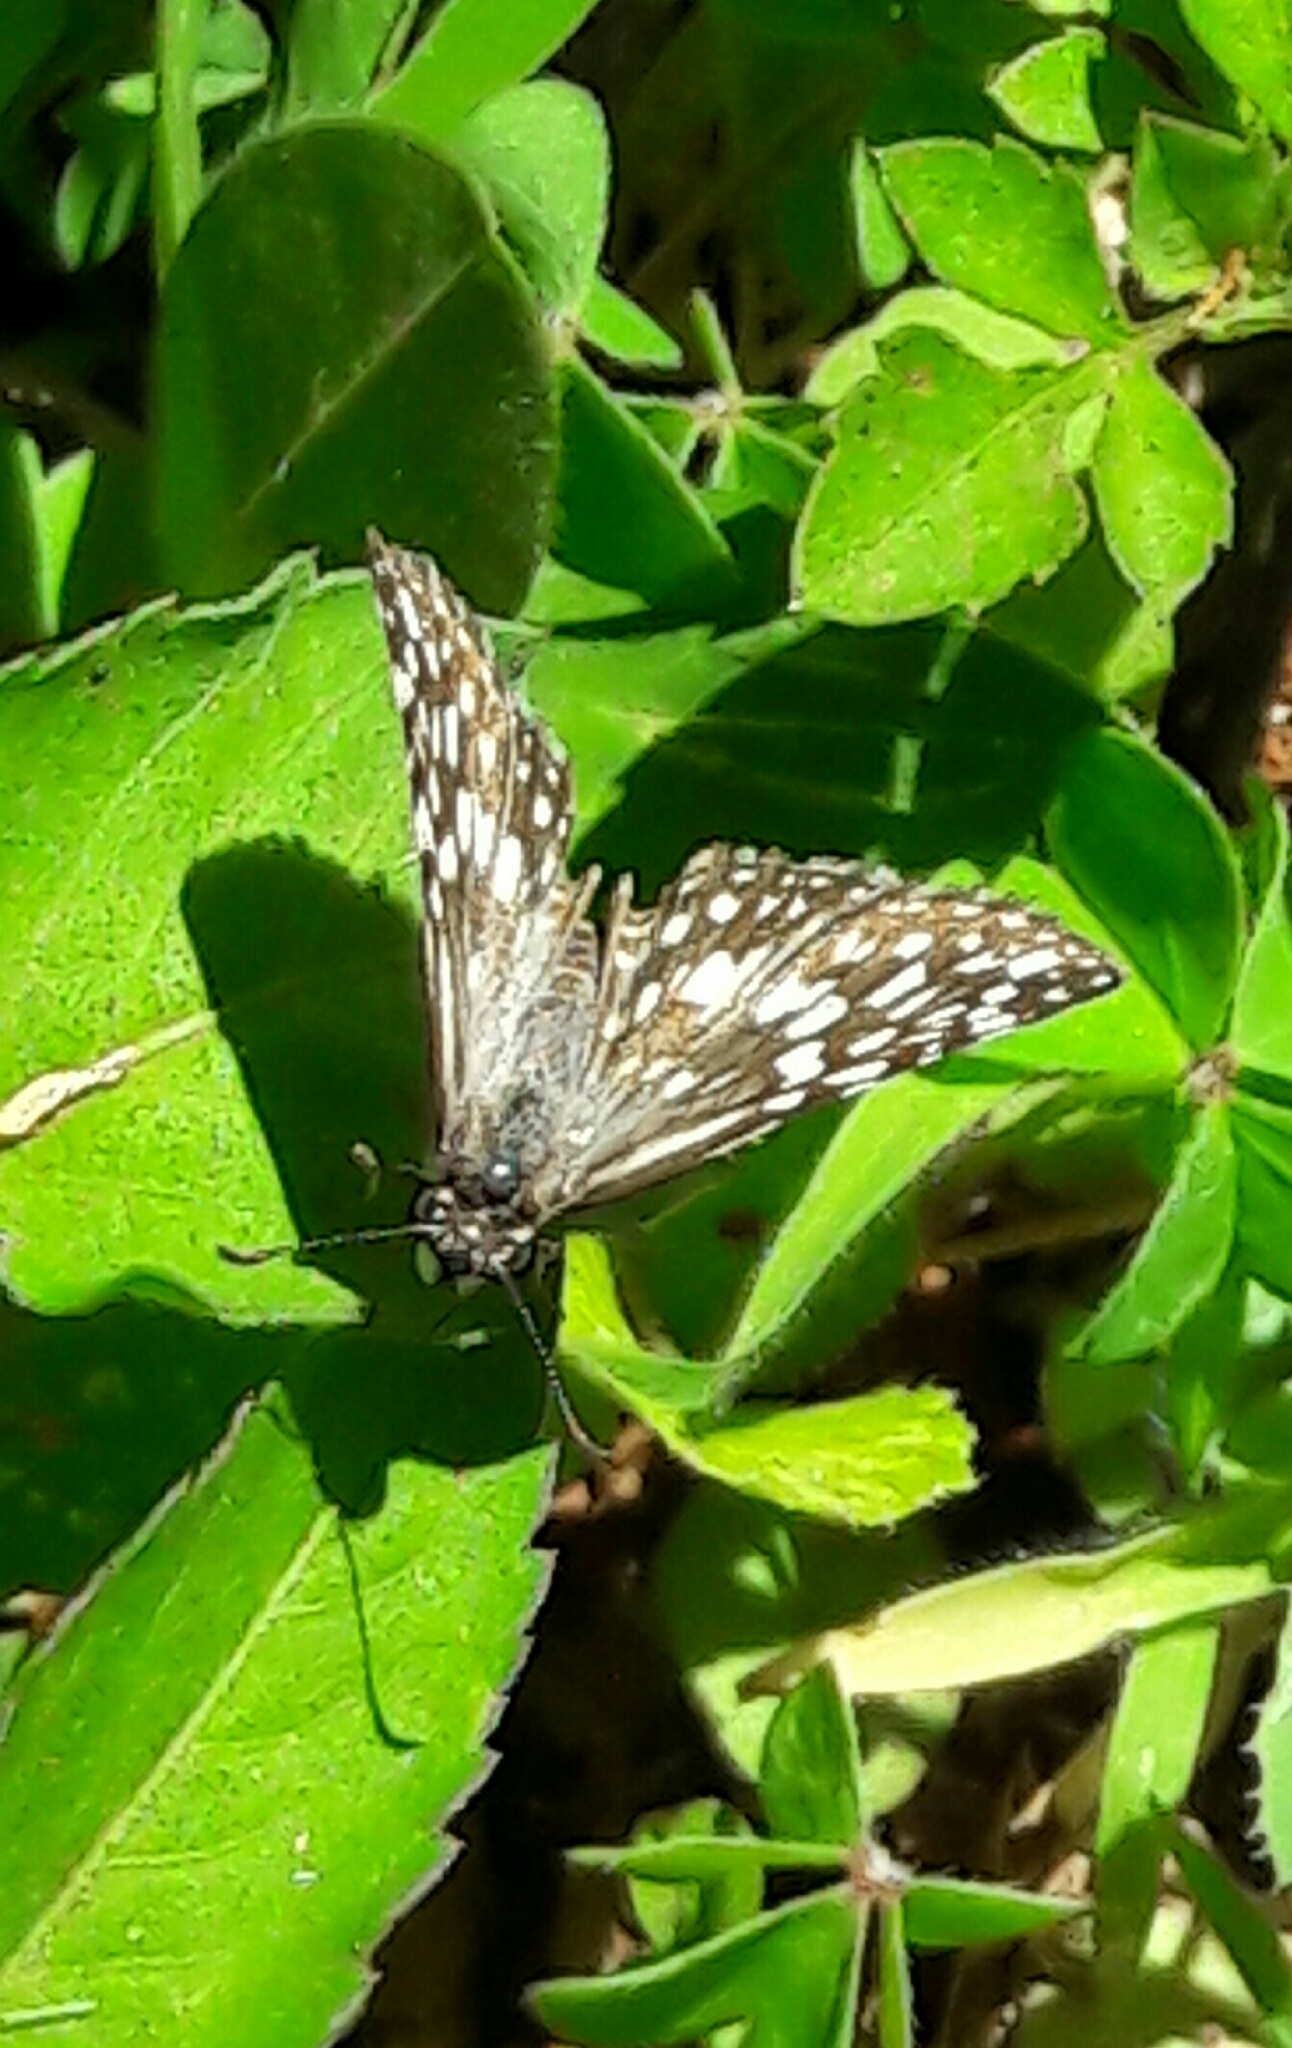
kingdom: Animalia
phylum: Arthropoda
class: Insecta
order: Lepidoptera
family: Hesperiidae
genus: Pyrgus
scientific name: Pyrgus oileus
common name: Tropical checkered-skipper
